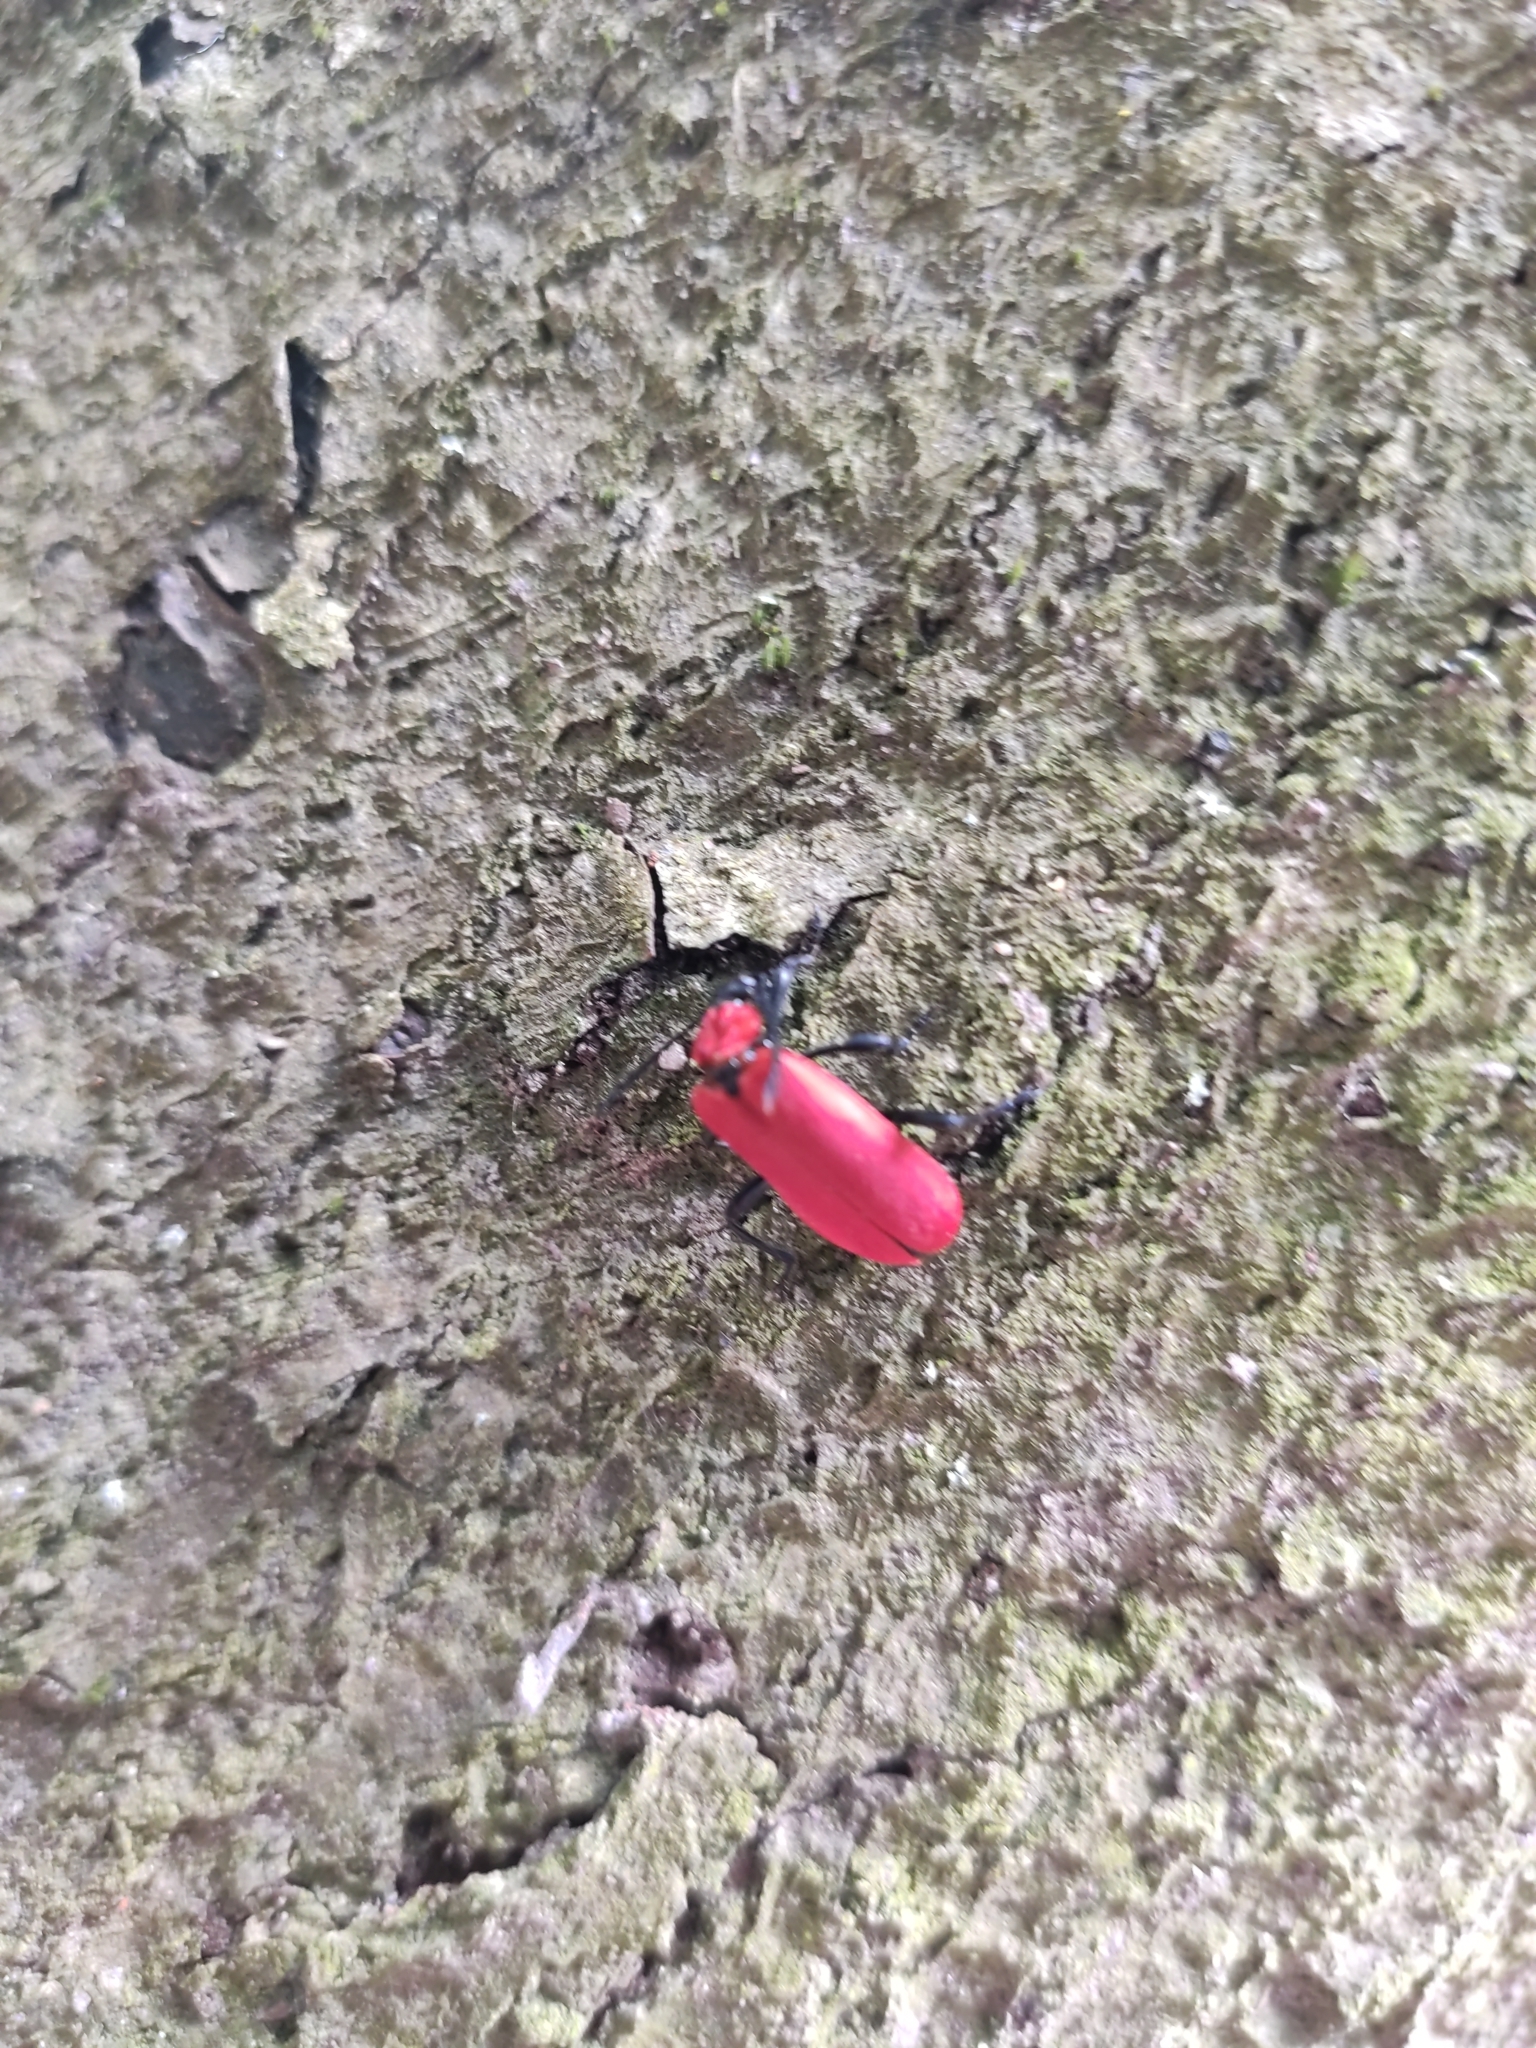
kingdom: Animalia
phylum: Arthropoda
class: Insecta
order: Coleoptera
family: Pyrochroidae
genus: Pyrochroa
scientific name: Pyrochroa coccinea
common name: Black-headed cardinal beetle
